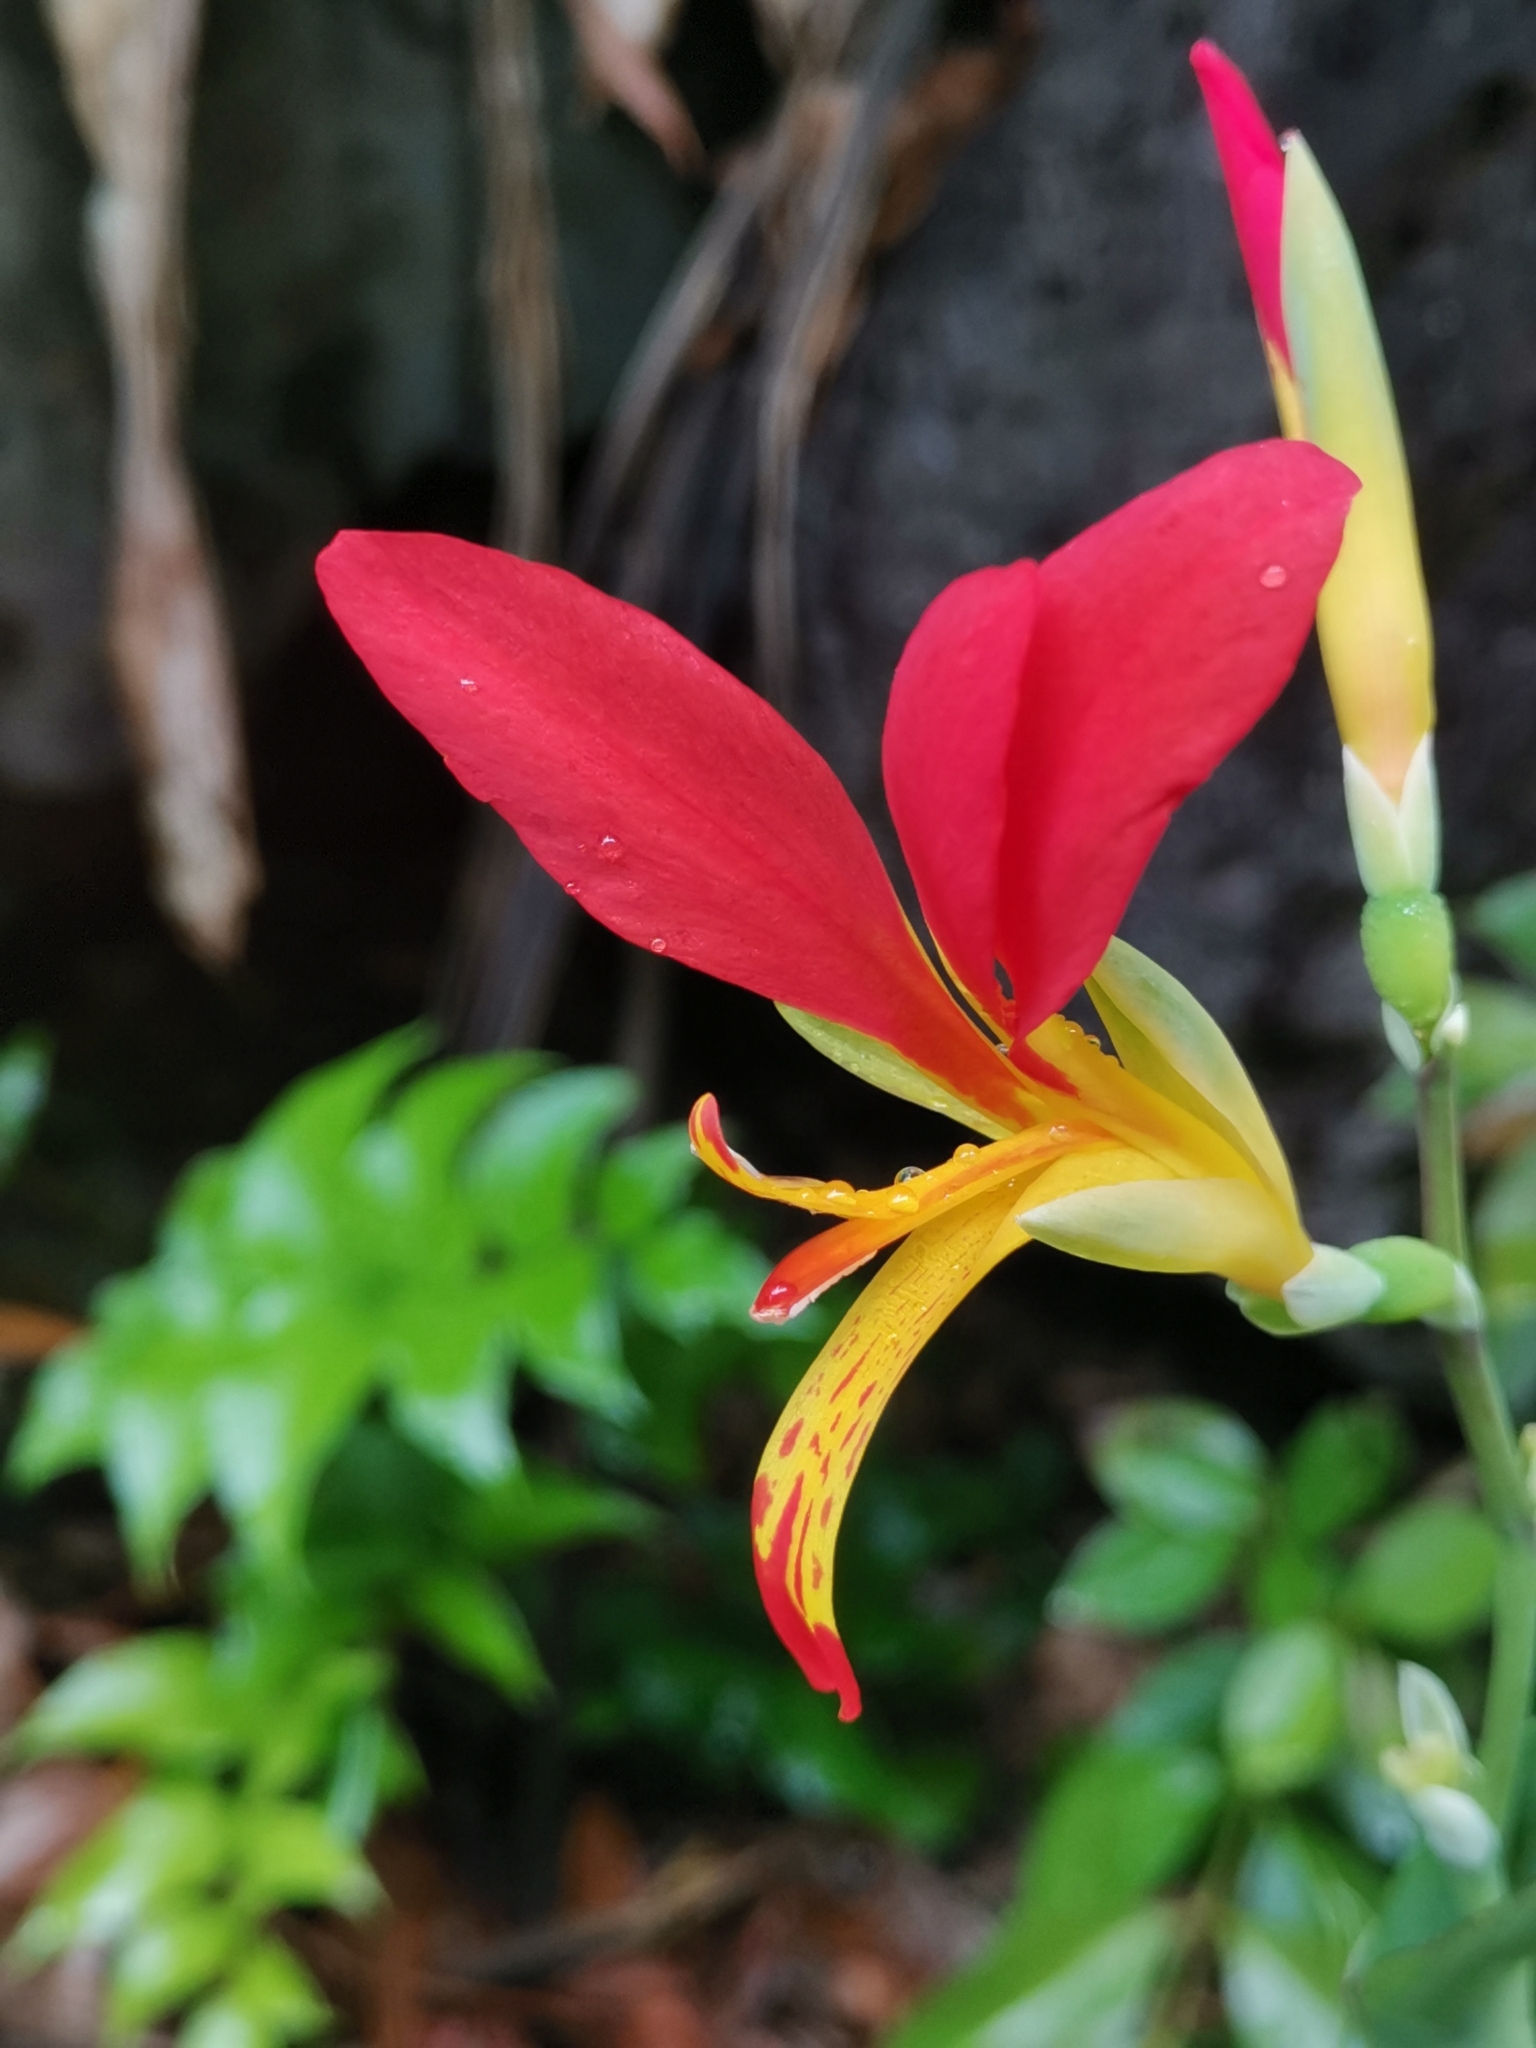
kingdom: Plantae
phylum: Tracheophyta
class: Liliopsida
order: Zingiberales
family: Cannaceae
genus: Canna
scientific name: Canna indica
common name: Indian shot
